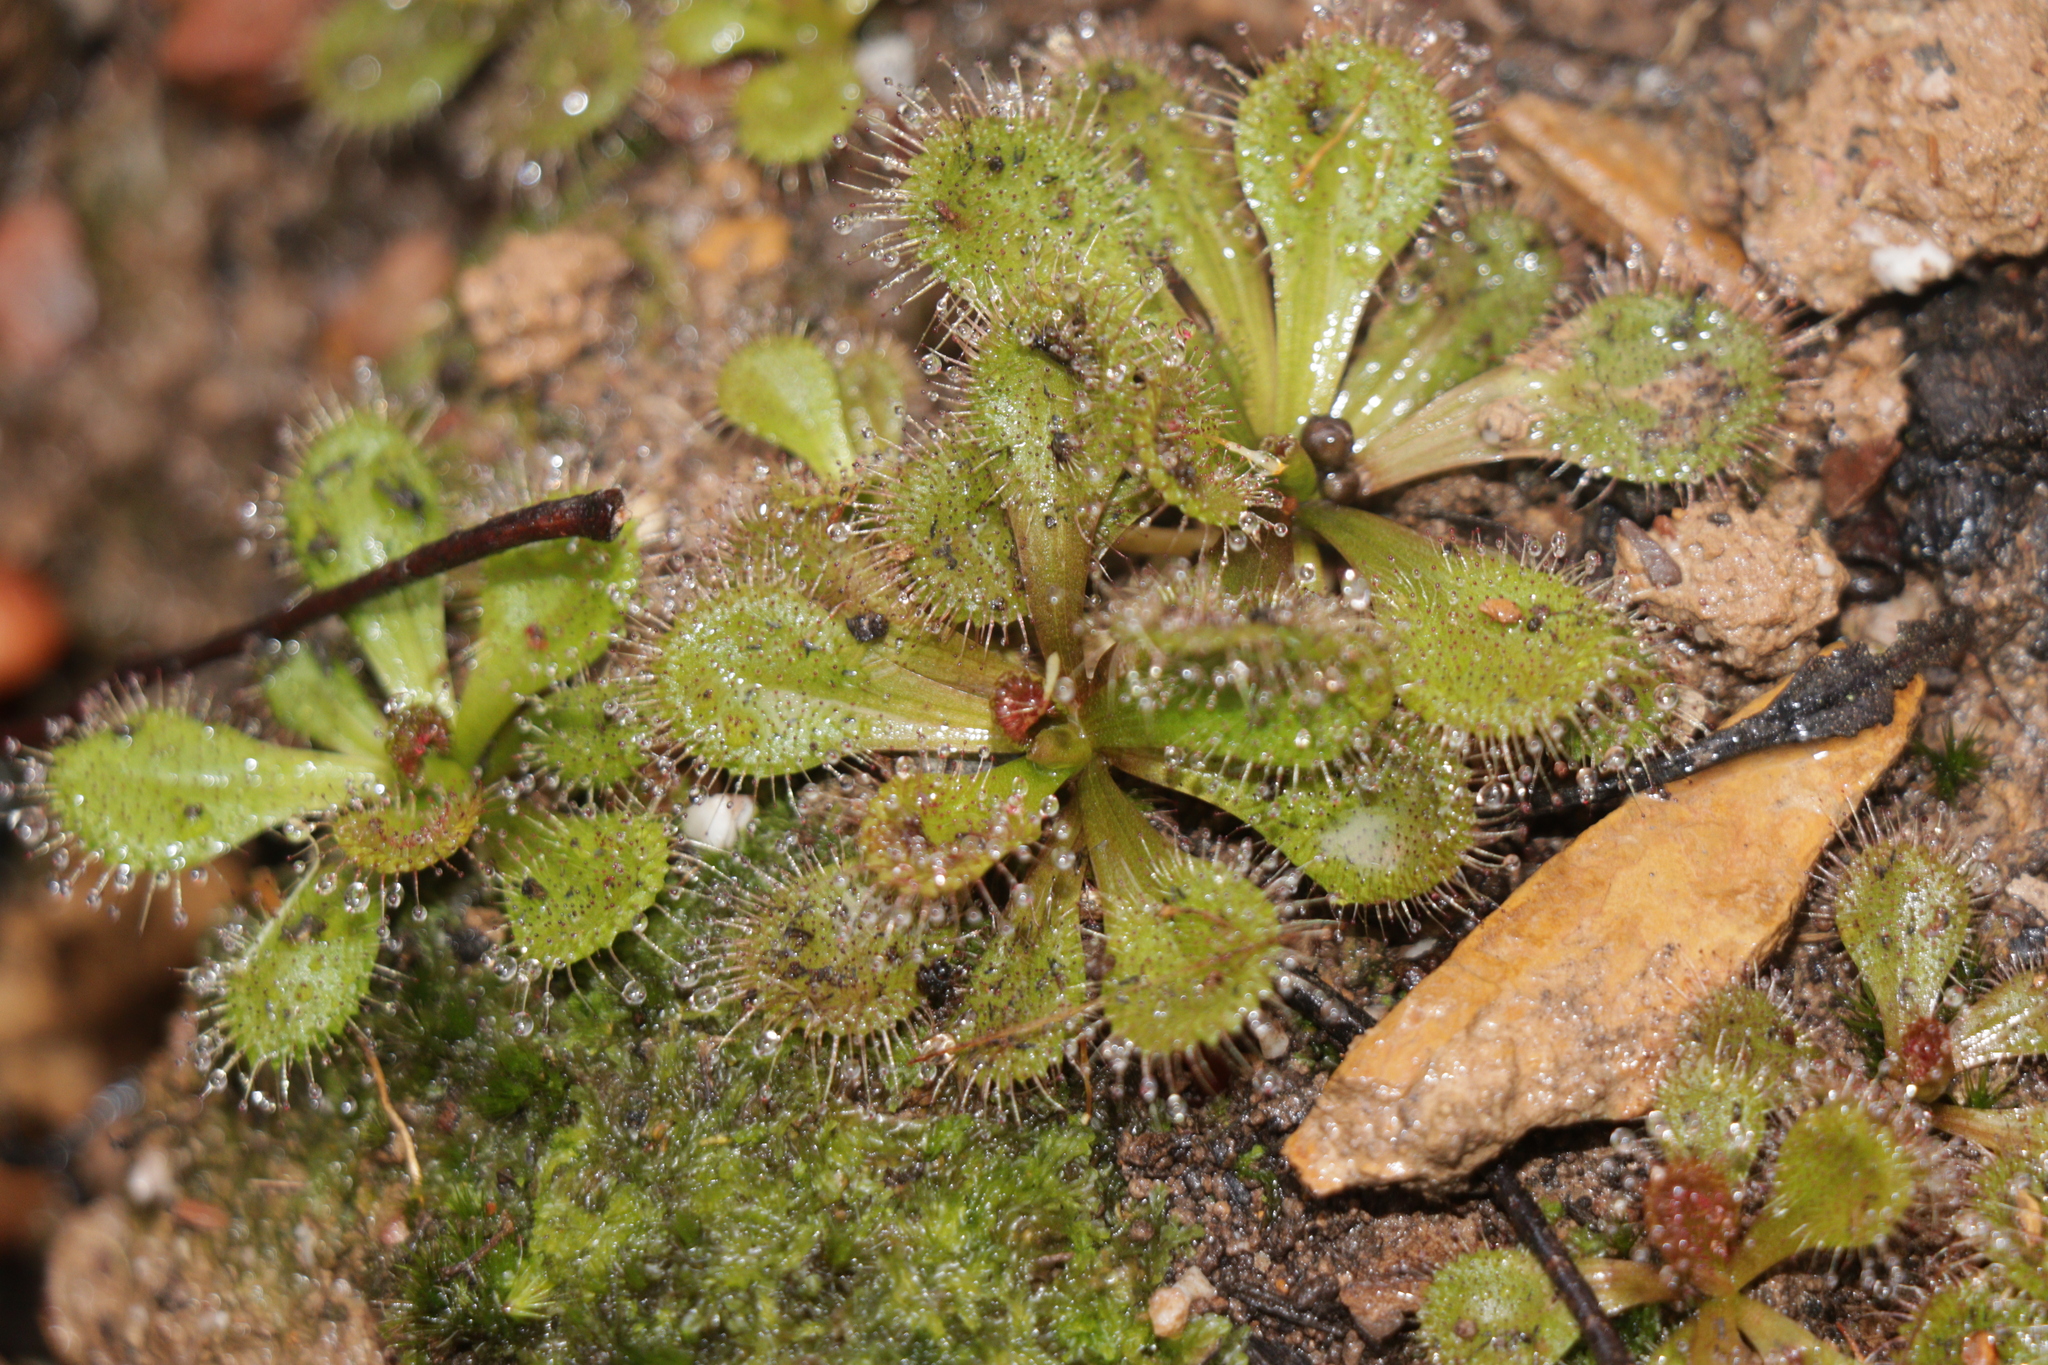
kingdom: Plantae
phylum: Tracheophyta
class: Magnoliopsida
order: Caryophyllales
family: Droseraceae
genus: Drosera
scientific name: Drosera aberrans
